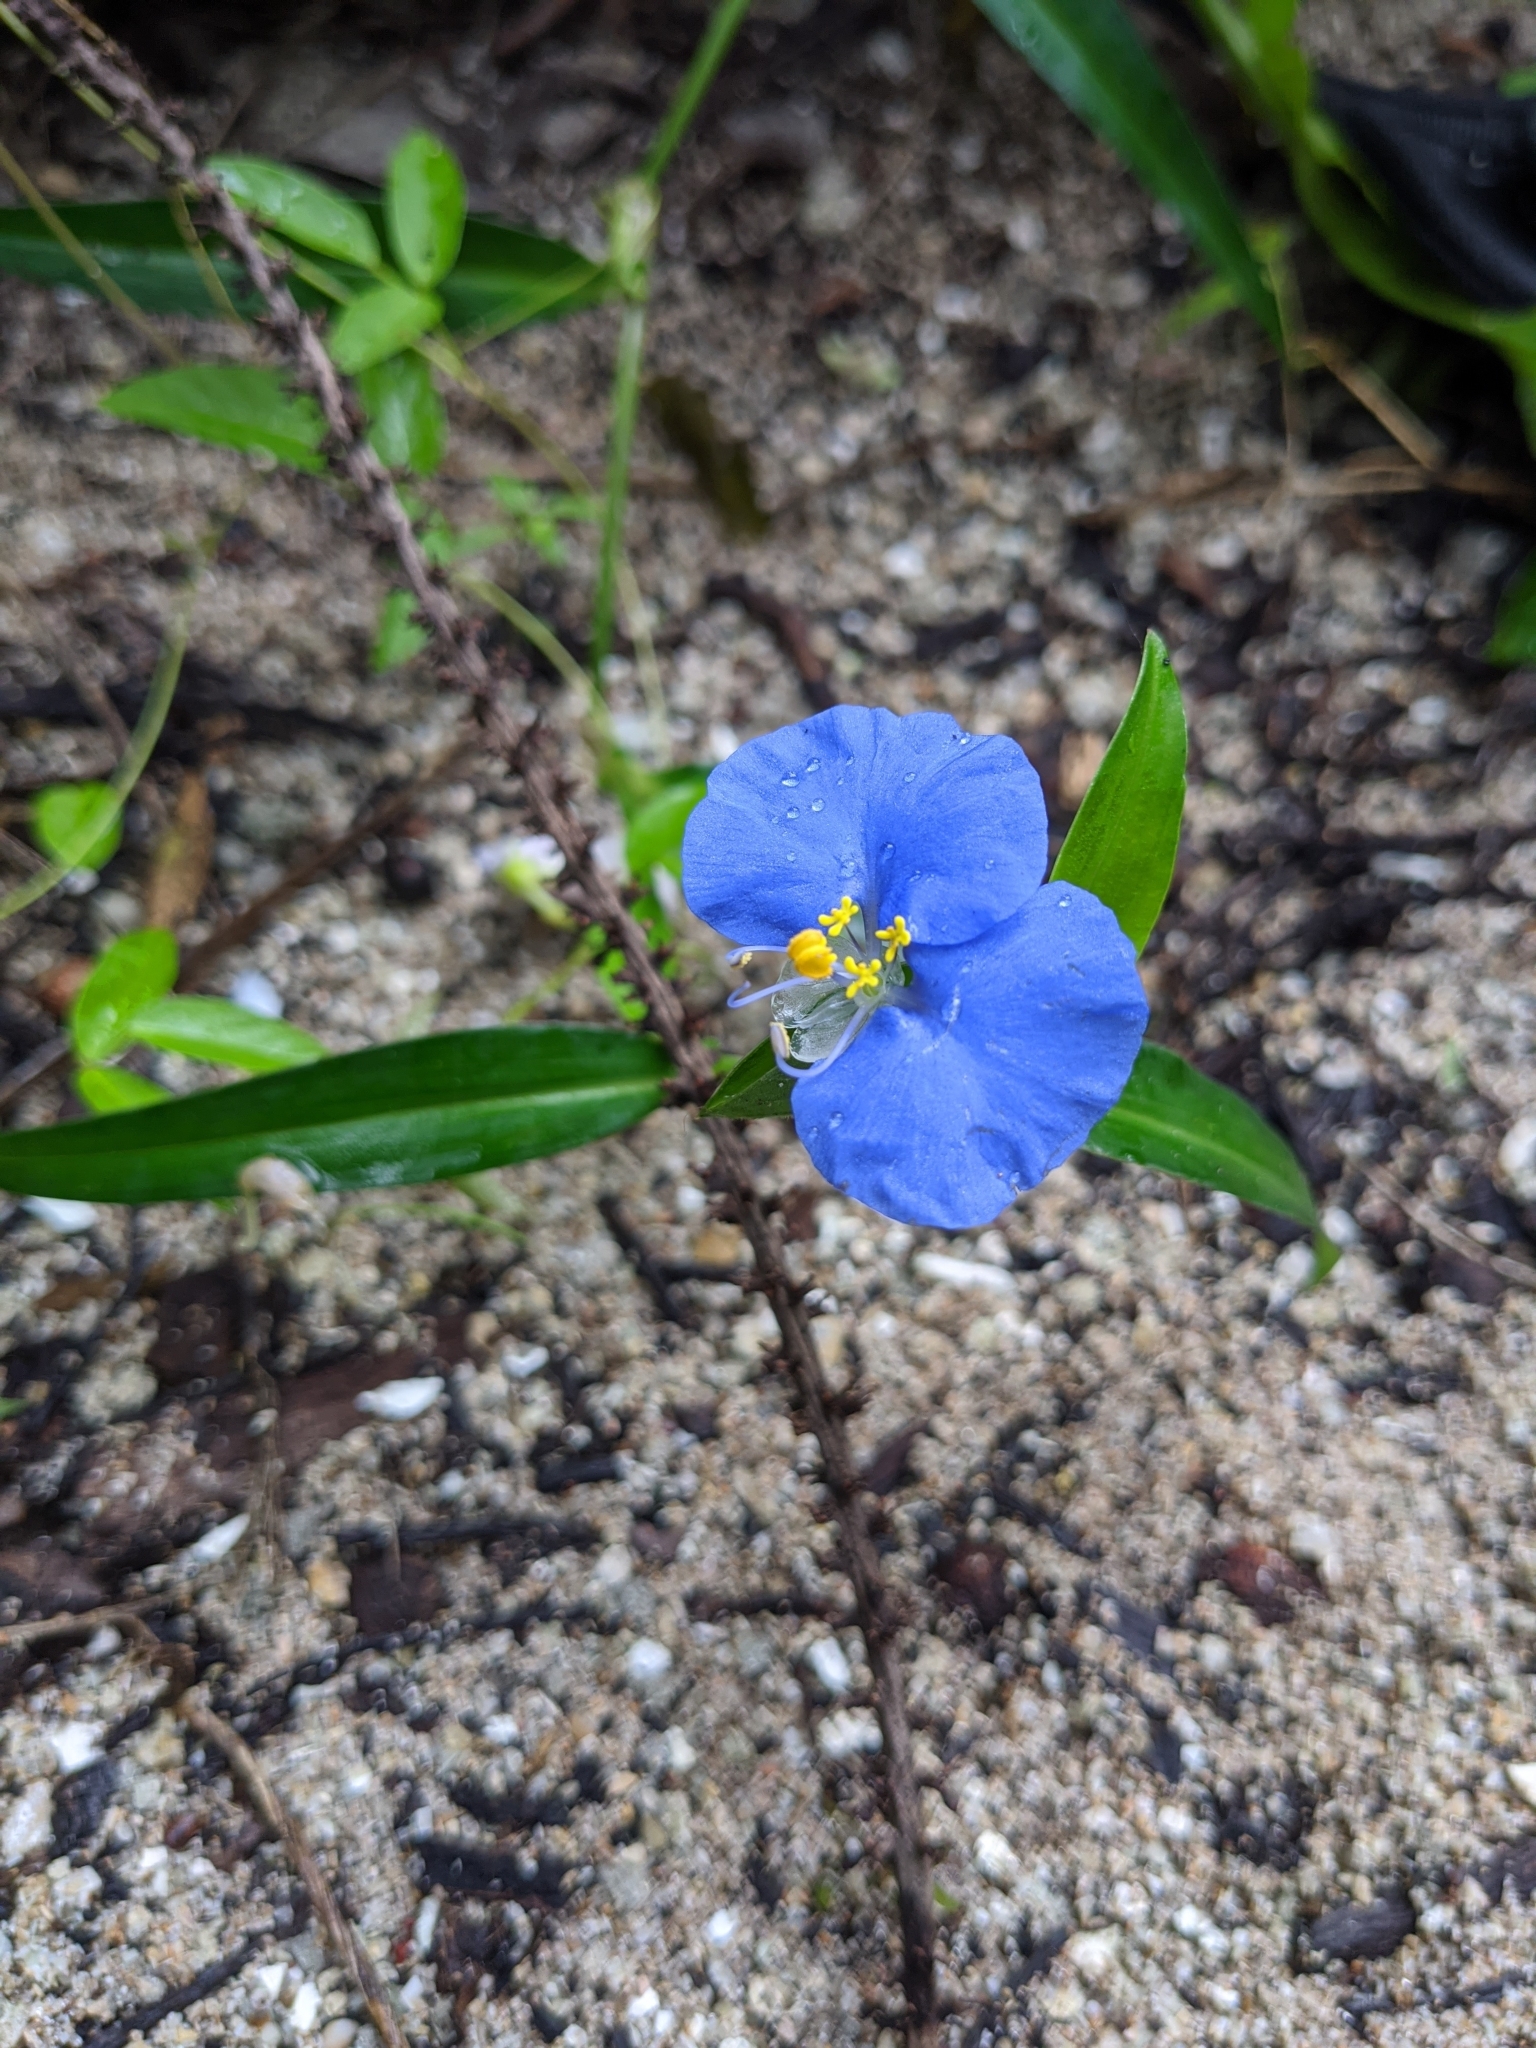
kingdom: Plantae
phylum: Tracheophyta
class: Liliopsida
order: Commelinales
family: Commelinaceae
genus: Commelina
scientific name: Commelina erecta
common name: Blousel blommetjie
